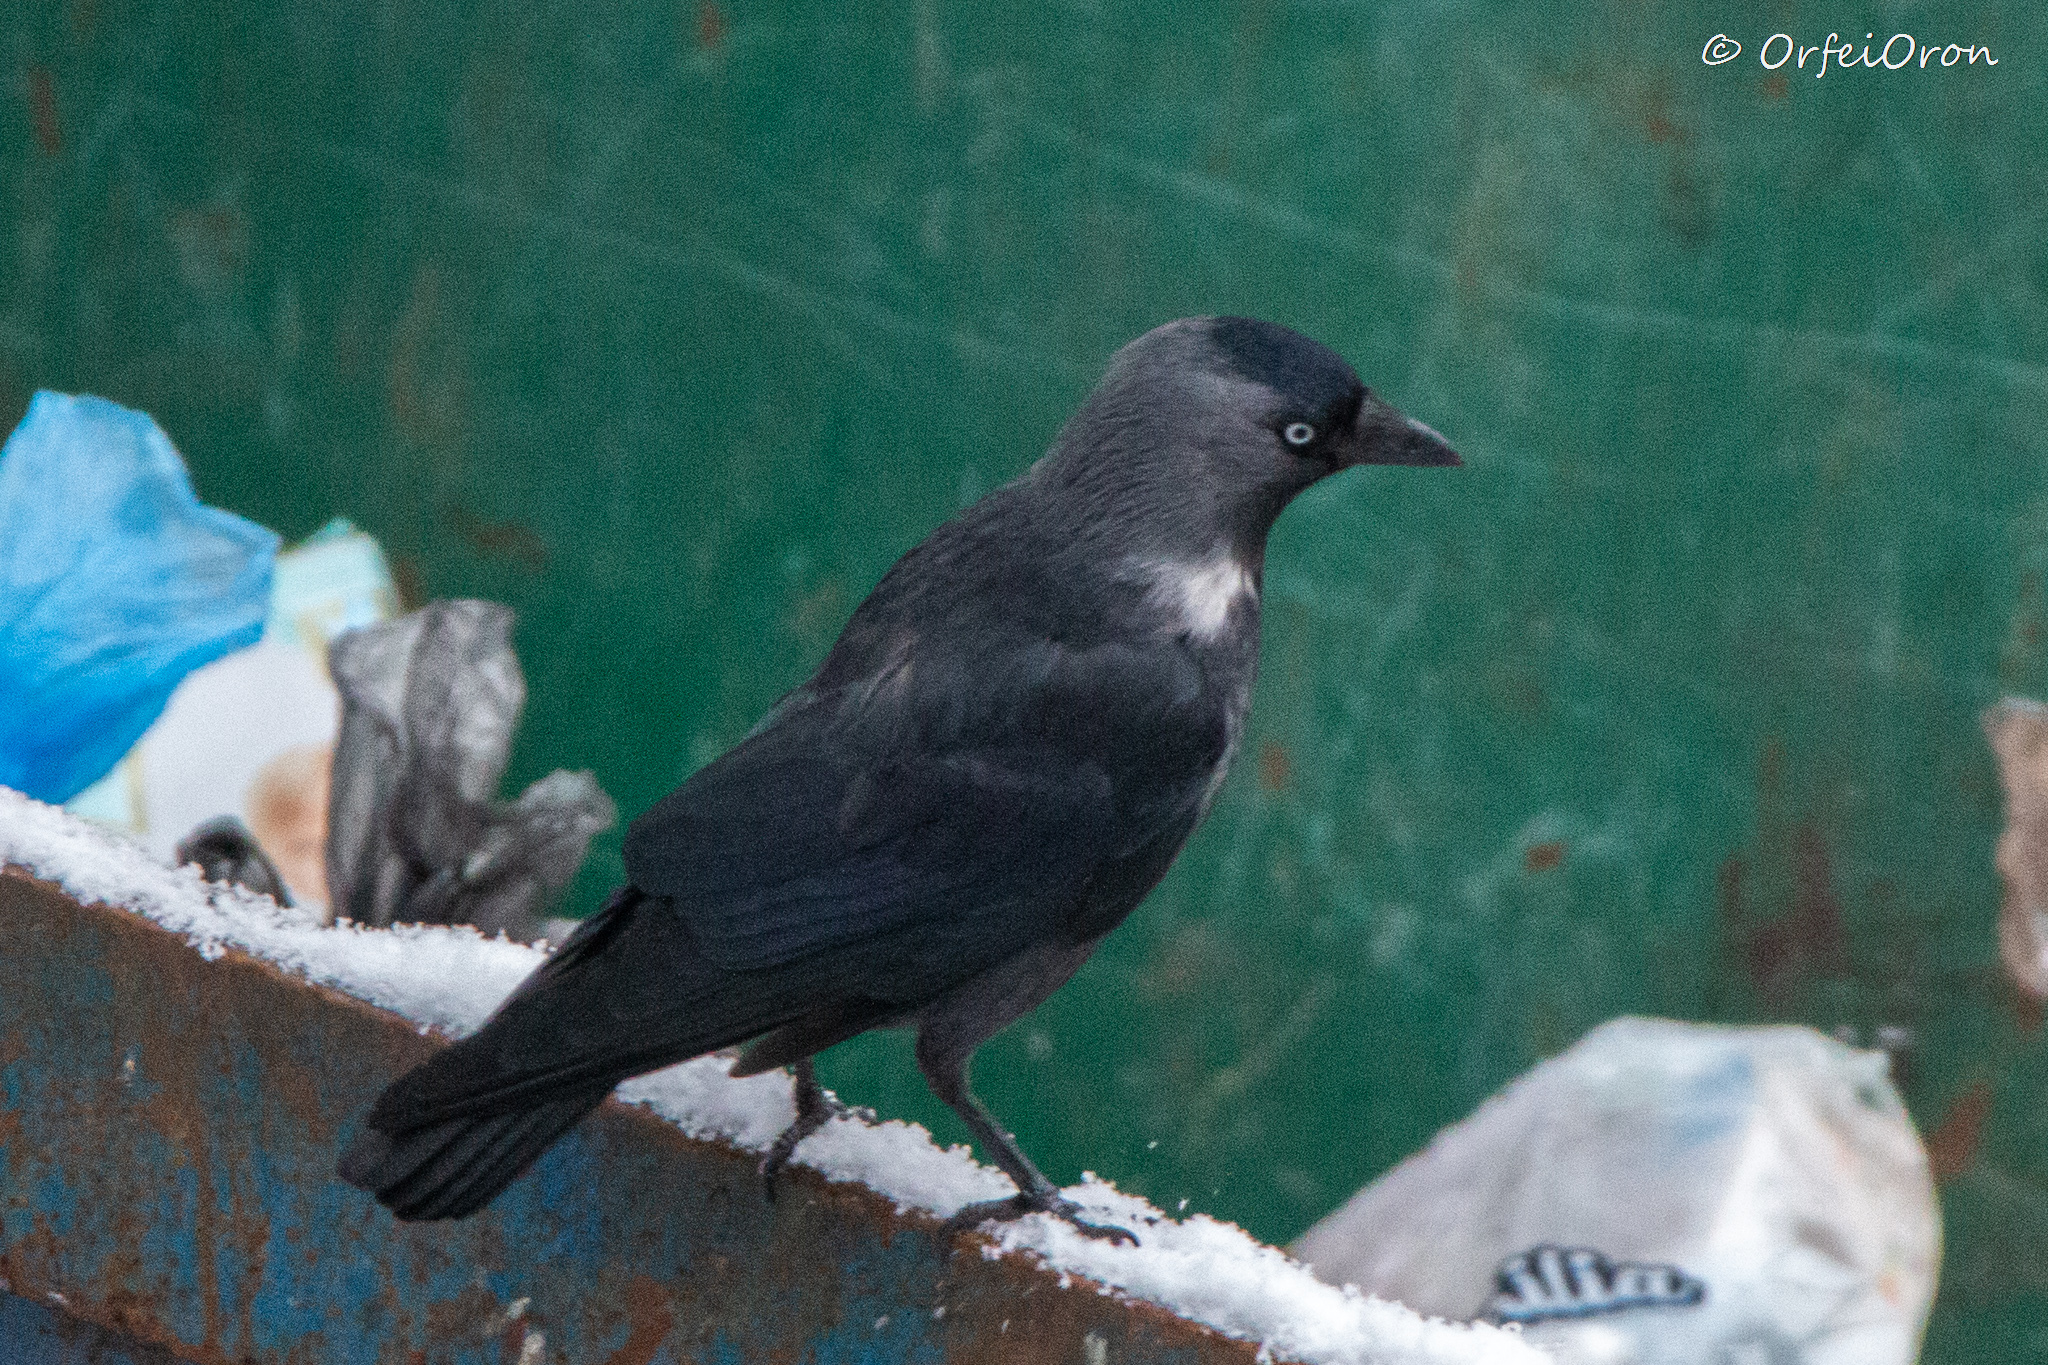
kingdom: Animalia
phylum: Chordata
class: Aves
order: Passeriformes
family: Corvidae
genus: Coloeus
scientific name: Coloeus monedula
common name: Western jackdaw
